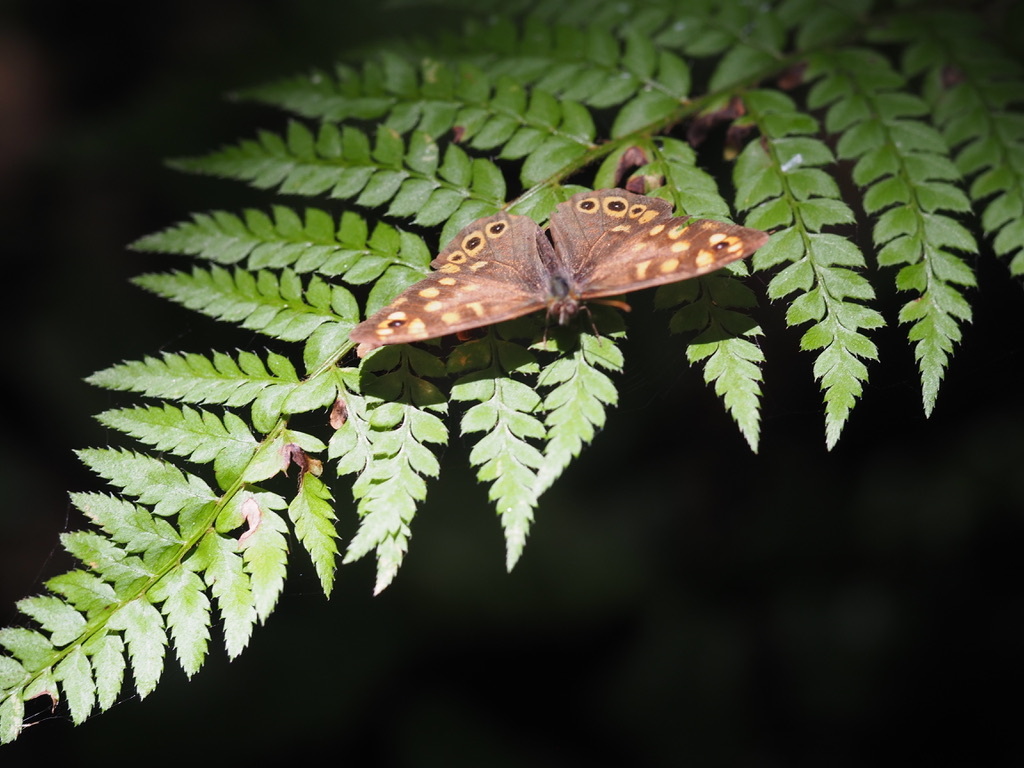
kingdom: Animalia
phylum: Arthropoda
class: Insecta
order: Lepidoptera
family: Nymphalidae
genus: Pararge
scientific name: Pararge aegeria
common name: Speckled wood
